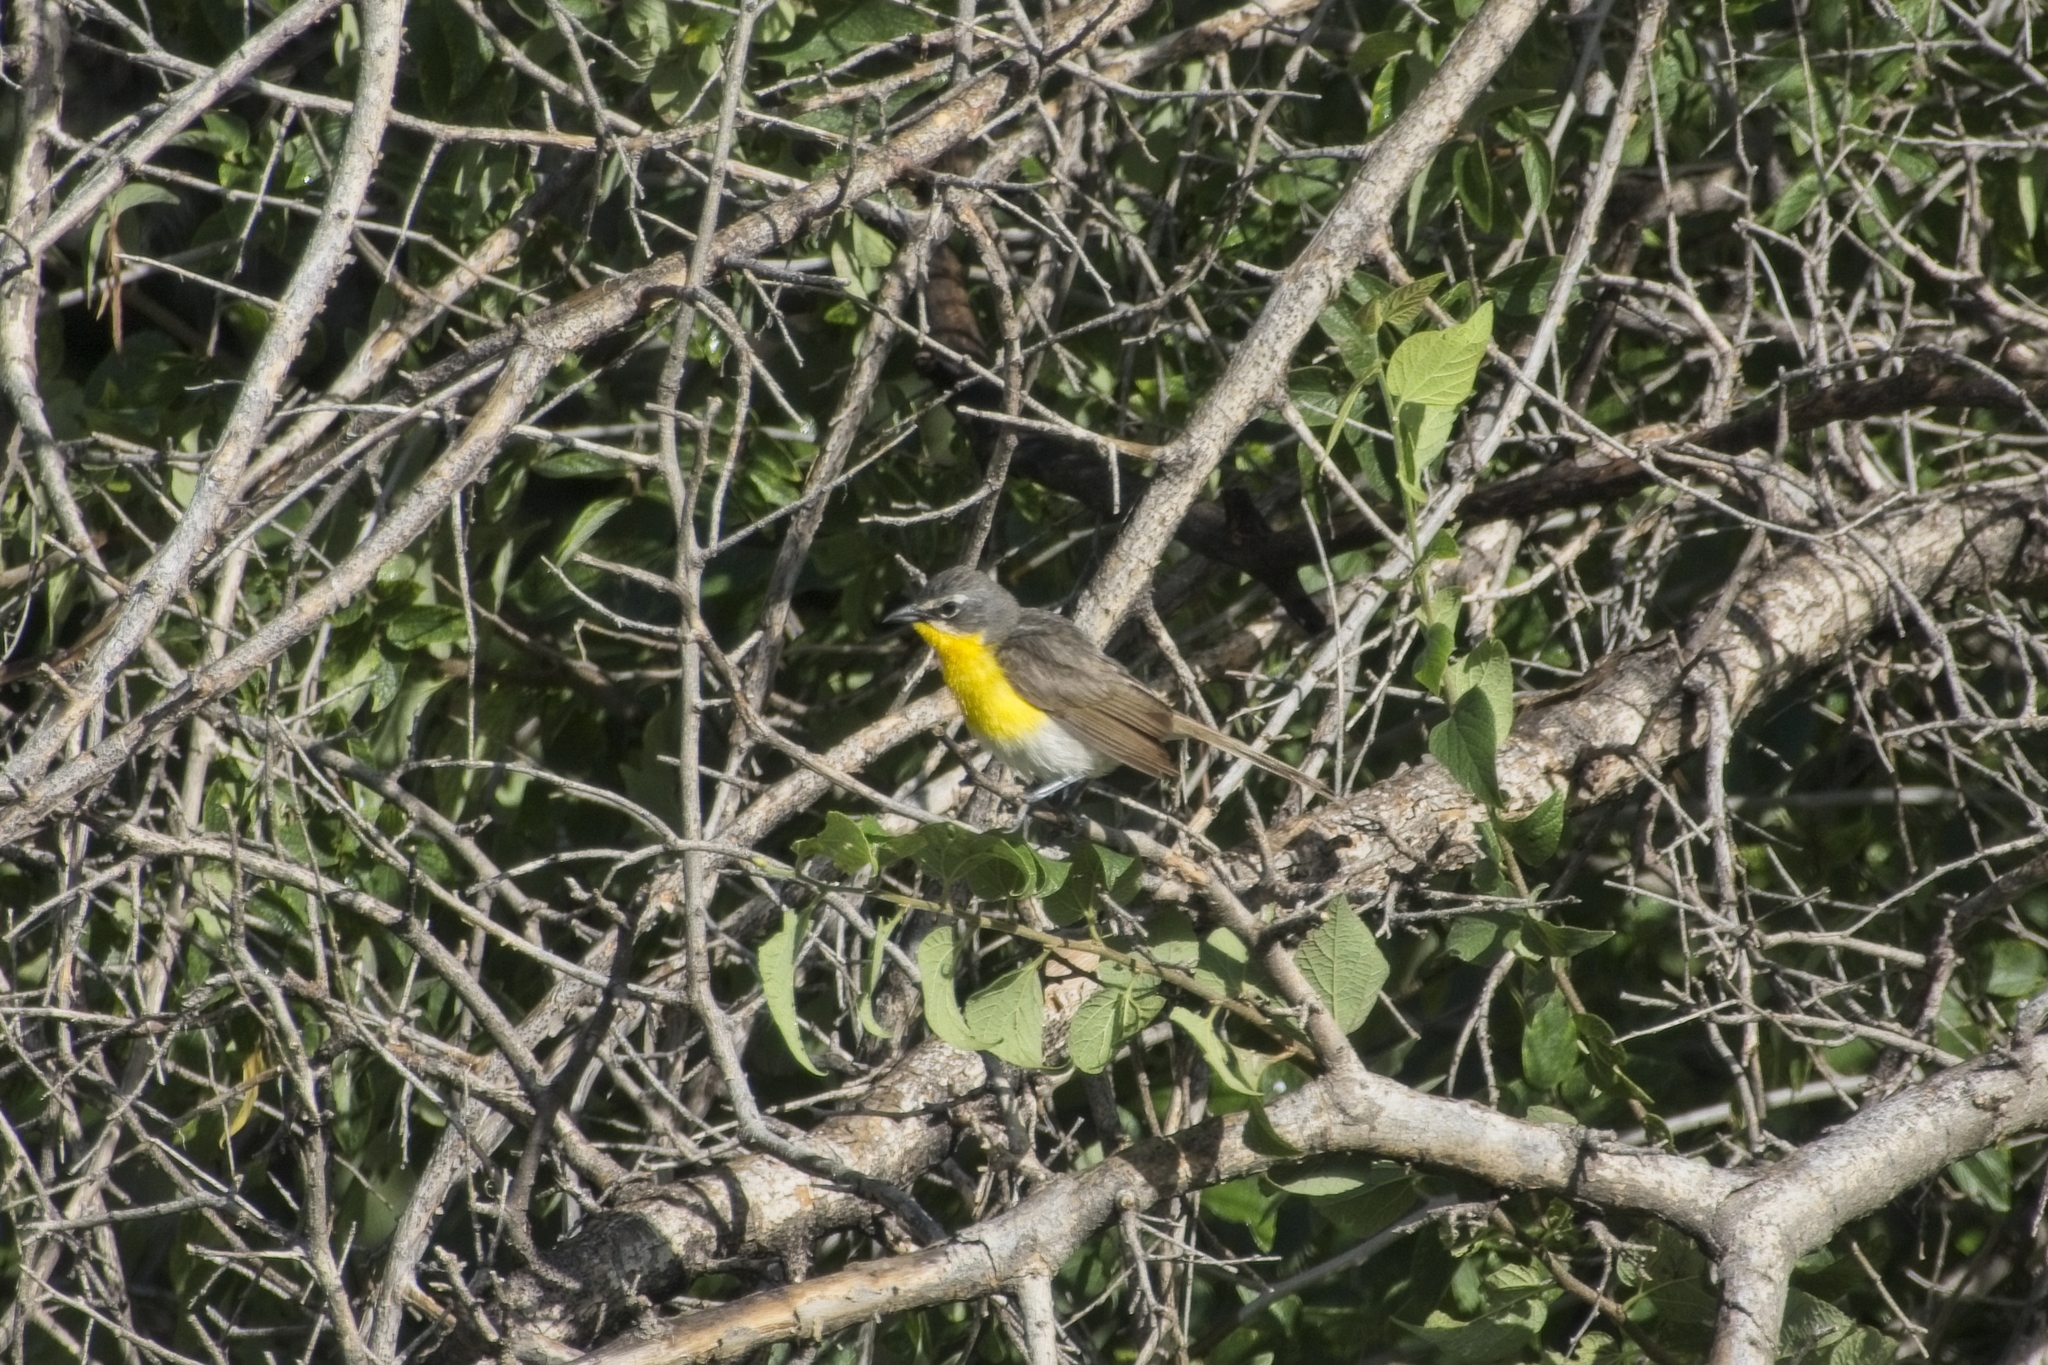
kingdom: Animalia
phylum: Chordata
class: Aves
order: Passeriformes
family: Parulidae
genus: Icteria
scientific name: Icteria virens
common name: Yellow-breasted chat
